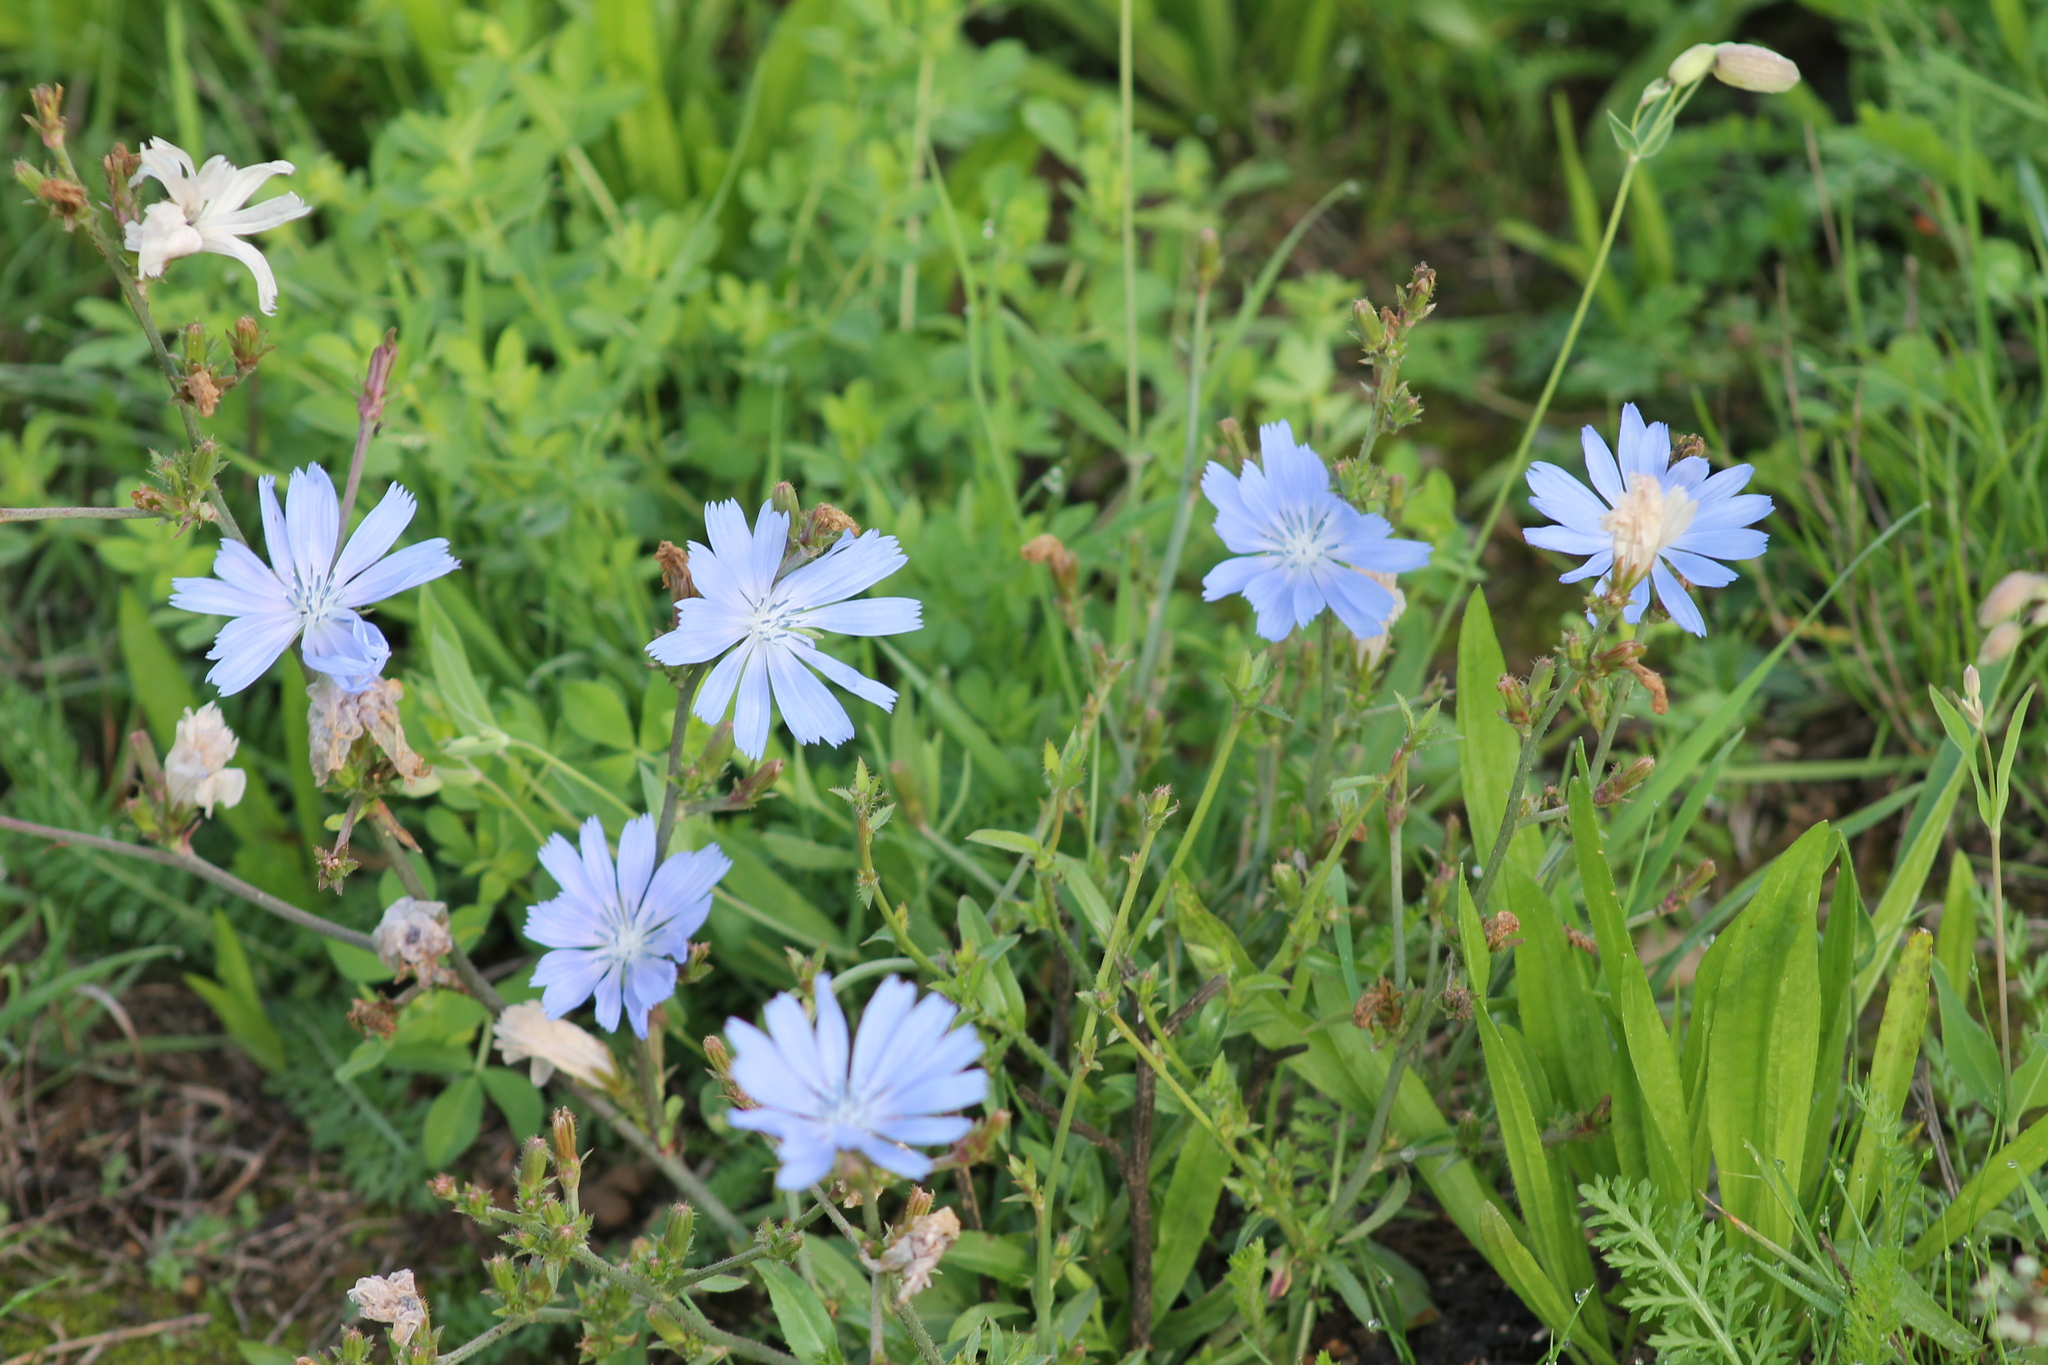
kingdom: Plantae
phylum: Tracheophyta
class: Magnoliopsida
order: Asterales
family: Asteraceae
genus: Cichorium
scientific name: Cichorium intybus
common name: Chicory
